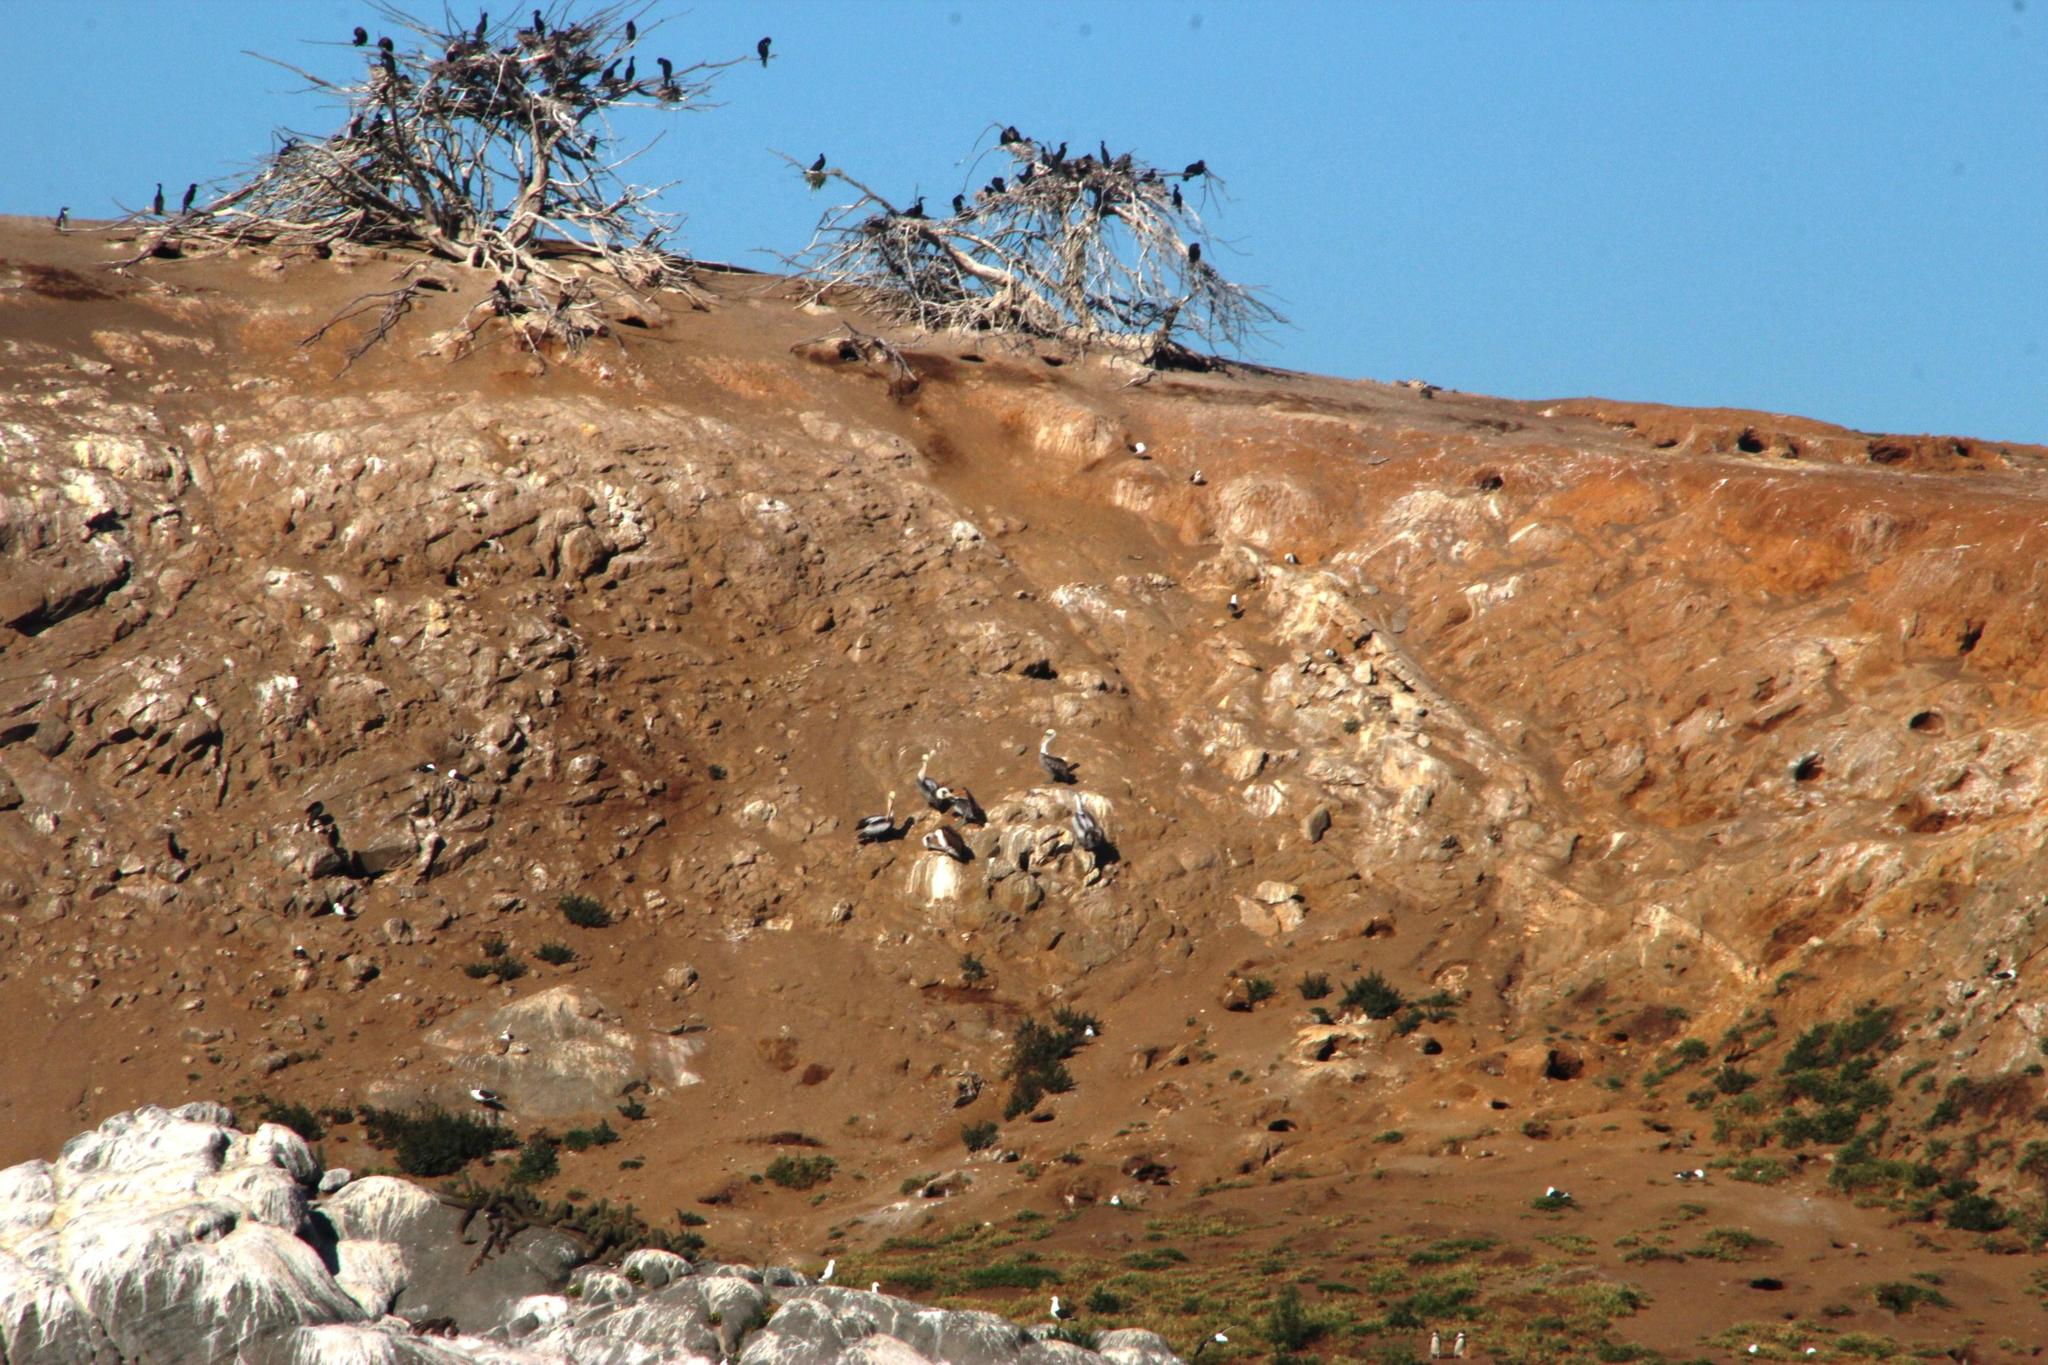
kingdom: Animalia
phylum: Chordata
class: Aves
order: Pelecaniformes
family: Pelecanidae
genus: Pelecanus
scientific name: Pelecanus thagus
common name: Peruvian pelican
